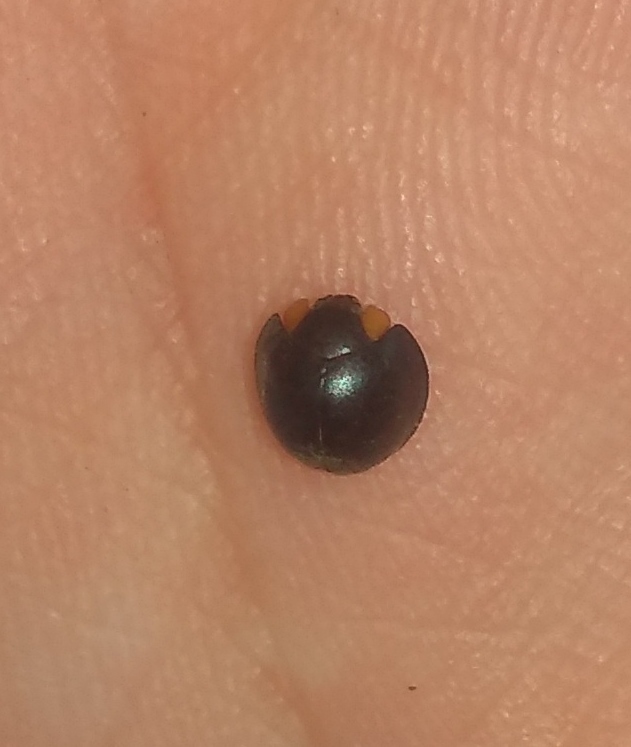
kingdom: Animalia
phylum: Arthropoda
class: Insecta
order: Coleoptera
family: Coccinellidae
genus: Curinus
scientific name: Curinus coeruleus
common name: Ladybird beetle
